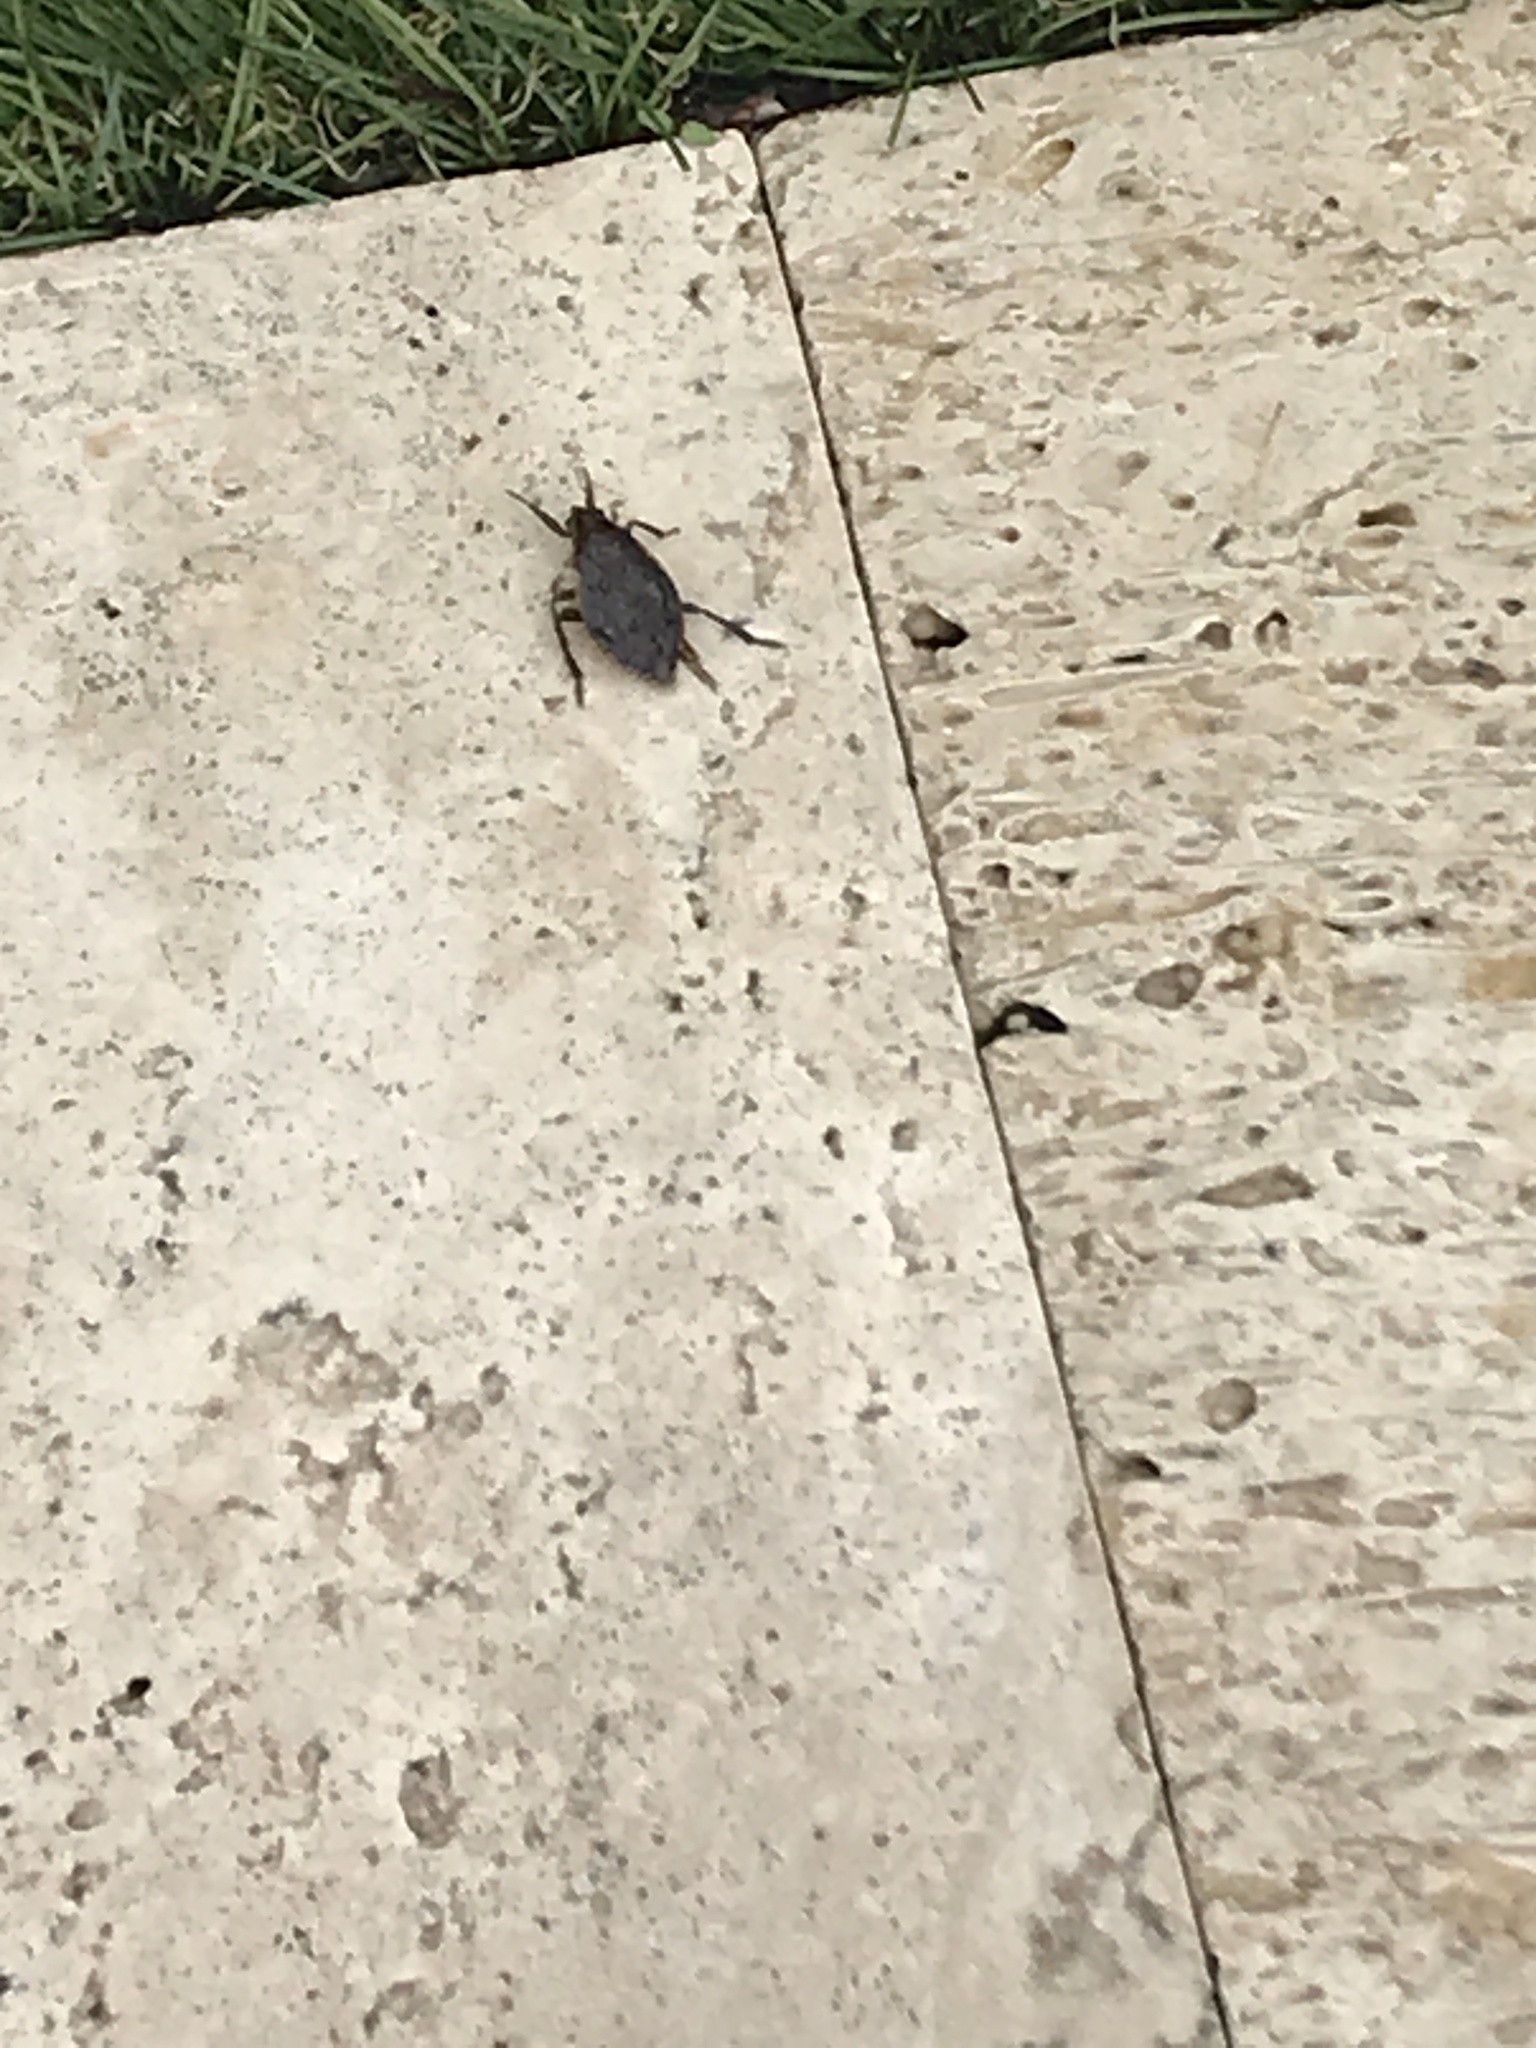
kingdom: Animalia
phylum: Arthropoda
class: Insecta
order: Hemiptera
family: Belostomatidae
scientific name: Belostomatidae
